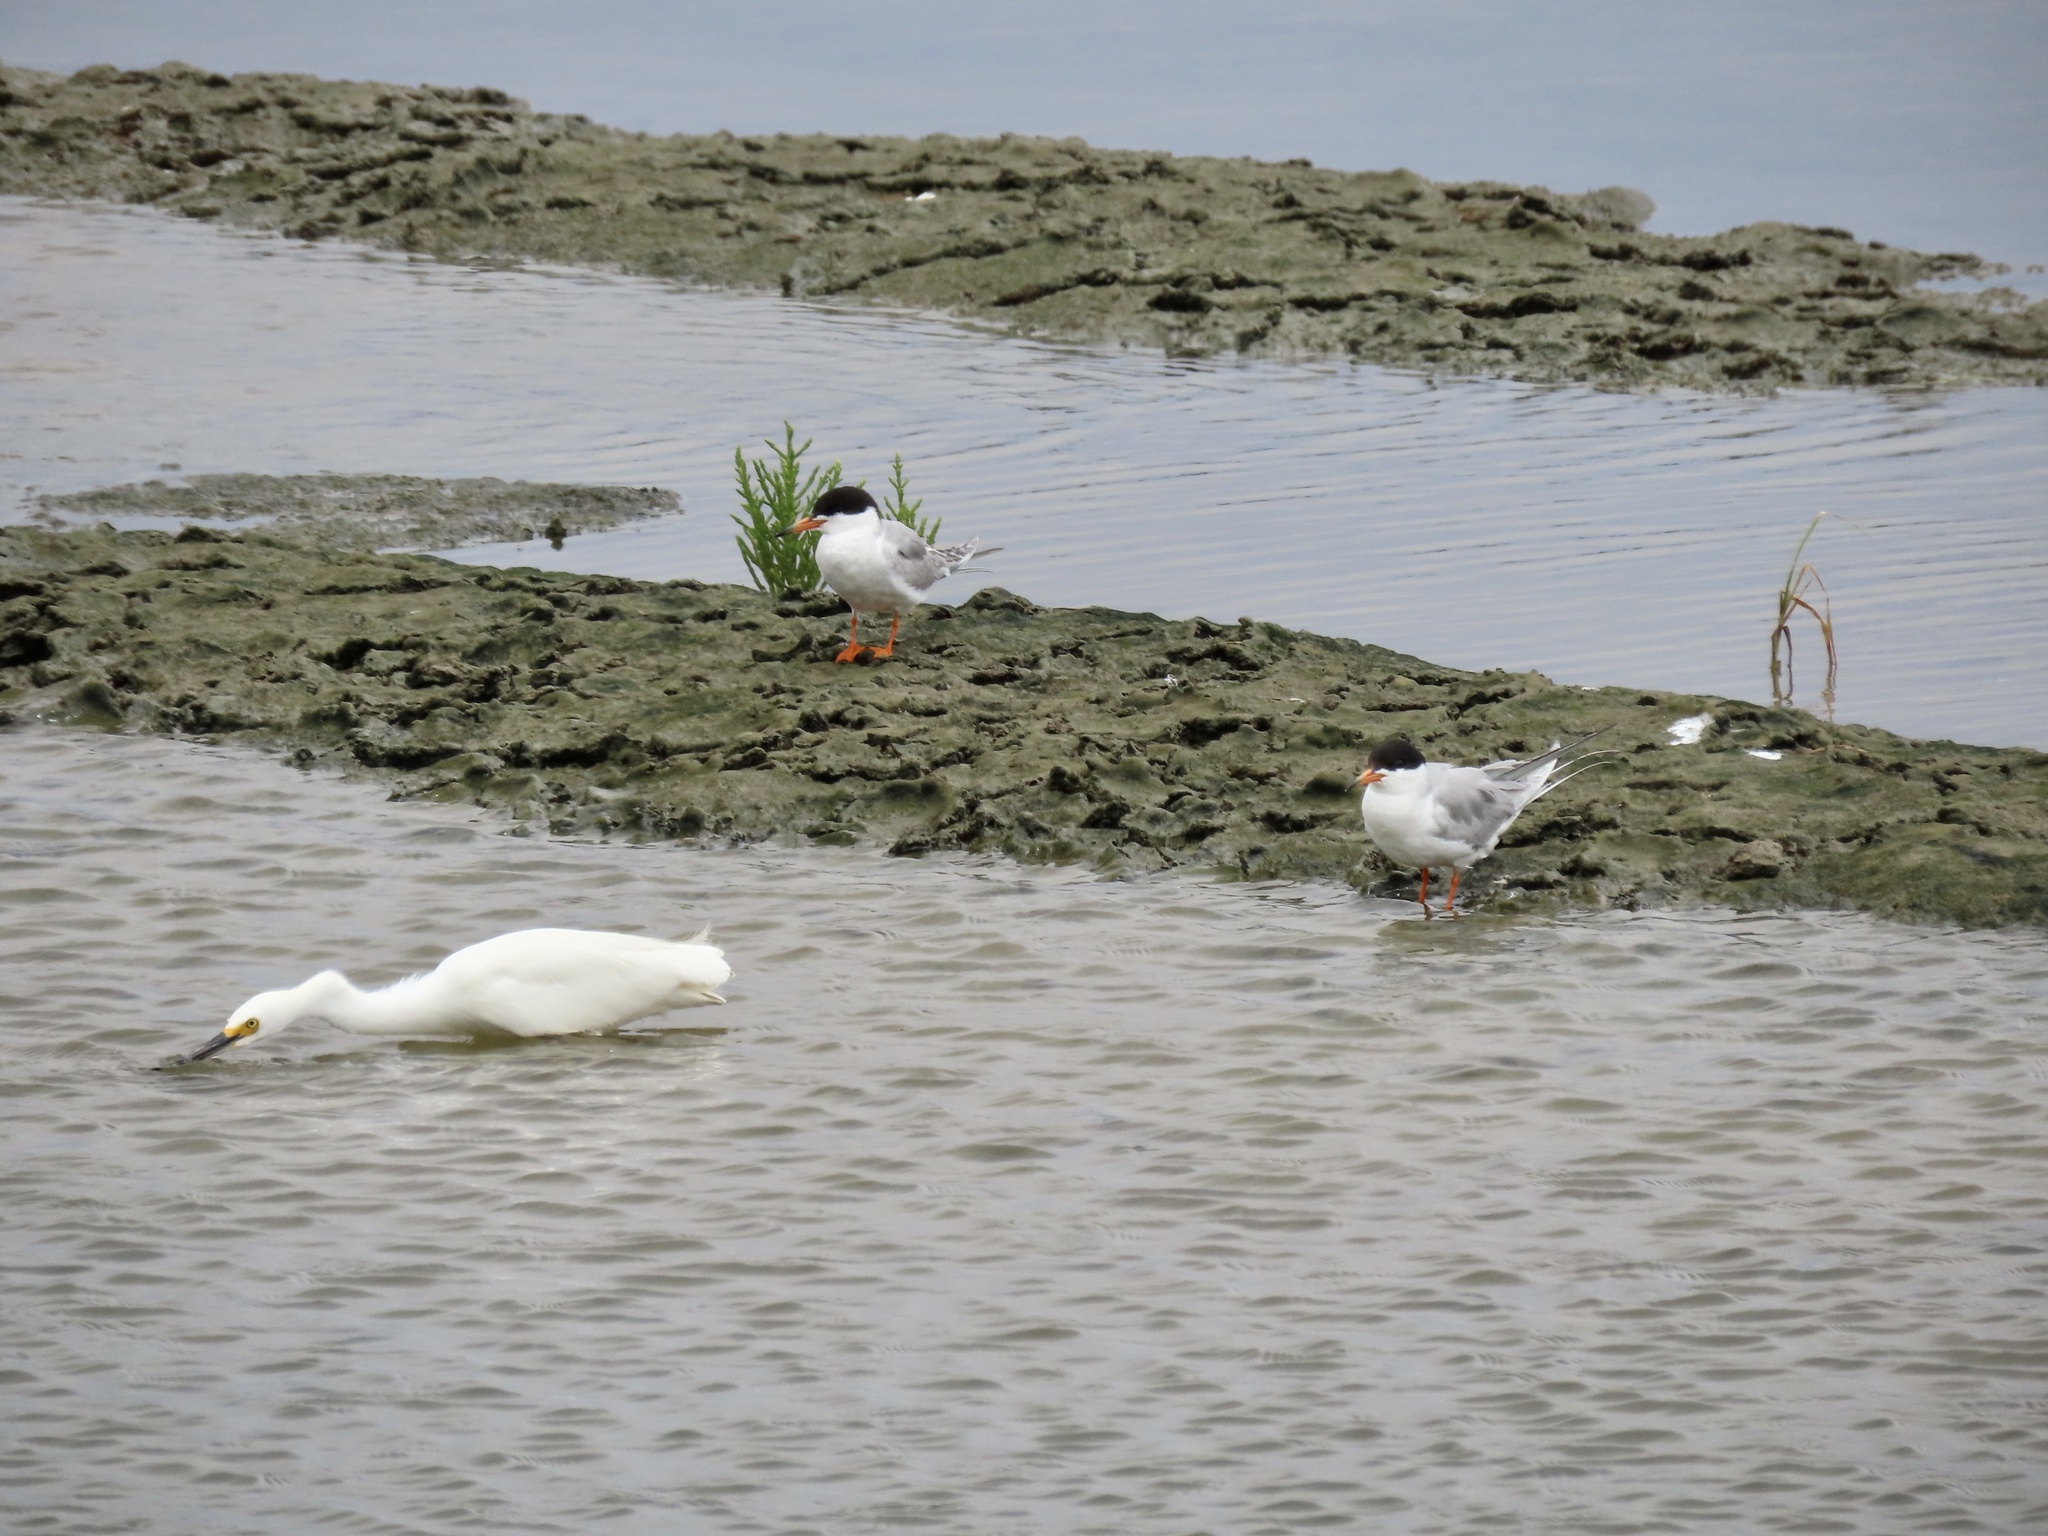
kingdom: Animalia
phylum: Chordata
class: Aves
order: Charadriiformes
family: Laridae
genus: Sterna
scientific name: Sterna forsteri
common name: Forster's tern
